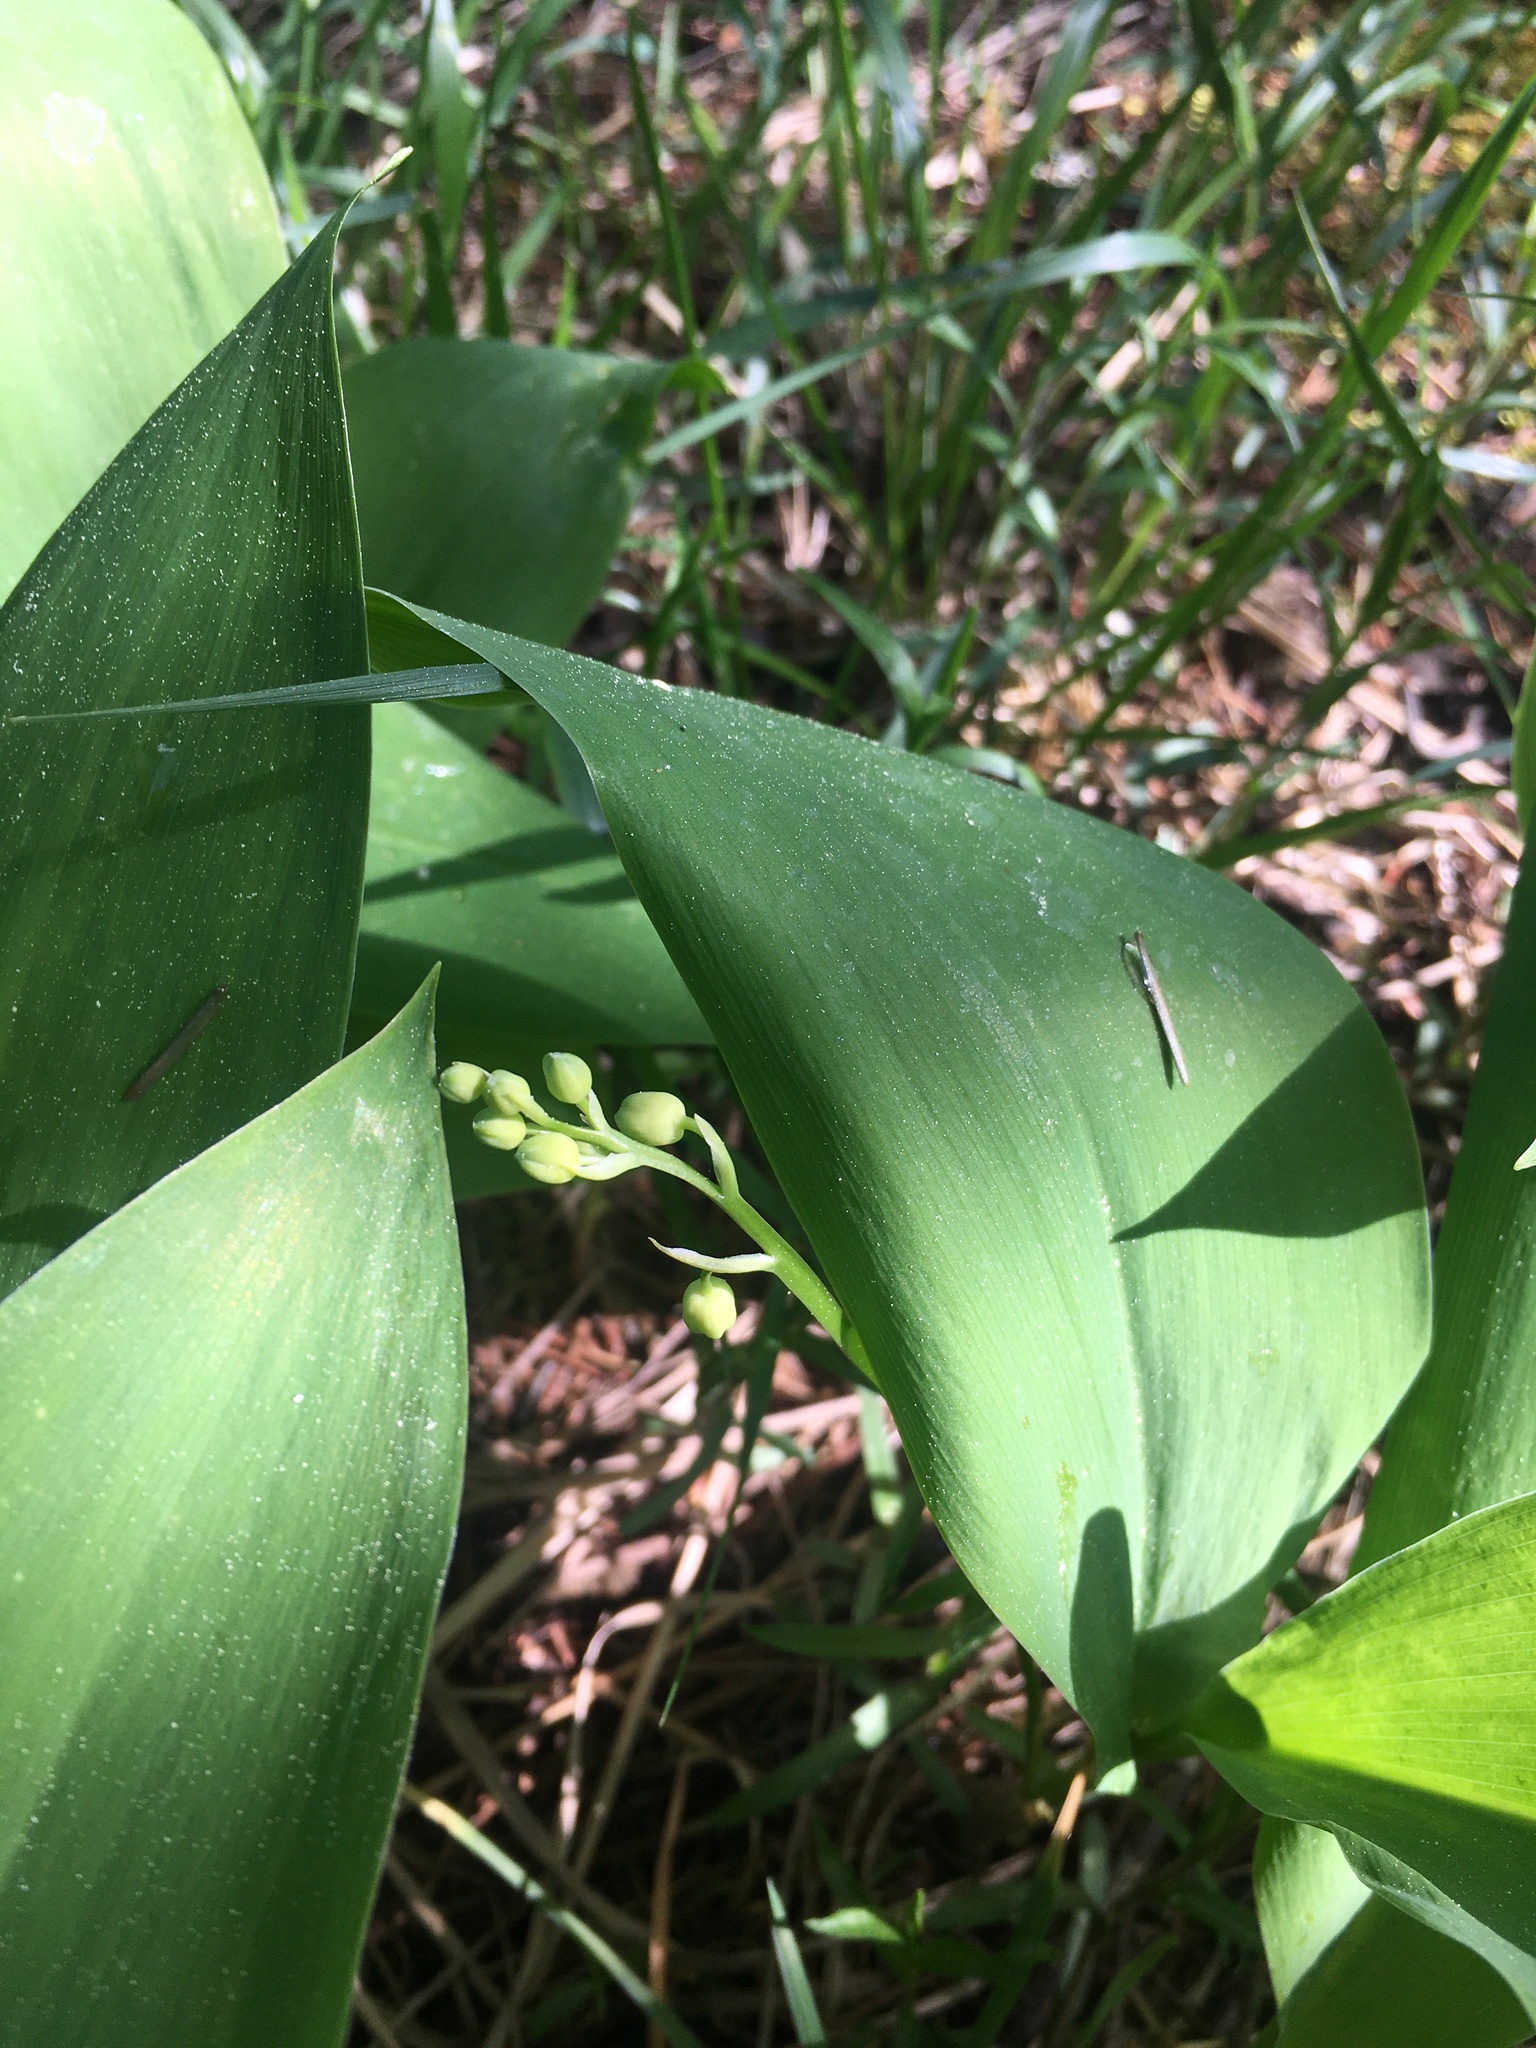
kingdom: Plantae
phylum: Tracheophyta
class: Liliopsida
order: Asparagales
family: Asparagaceae
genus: Convallaria
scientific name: Convallaria majalis
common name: Lily-of-the-valley
